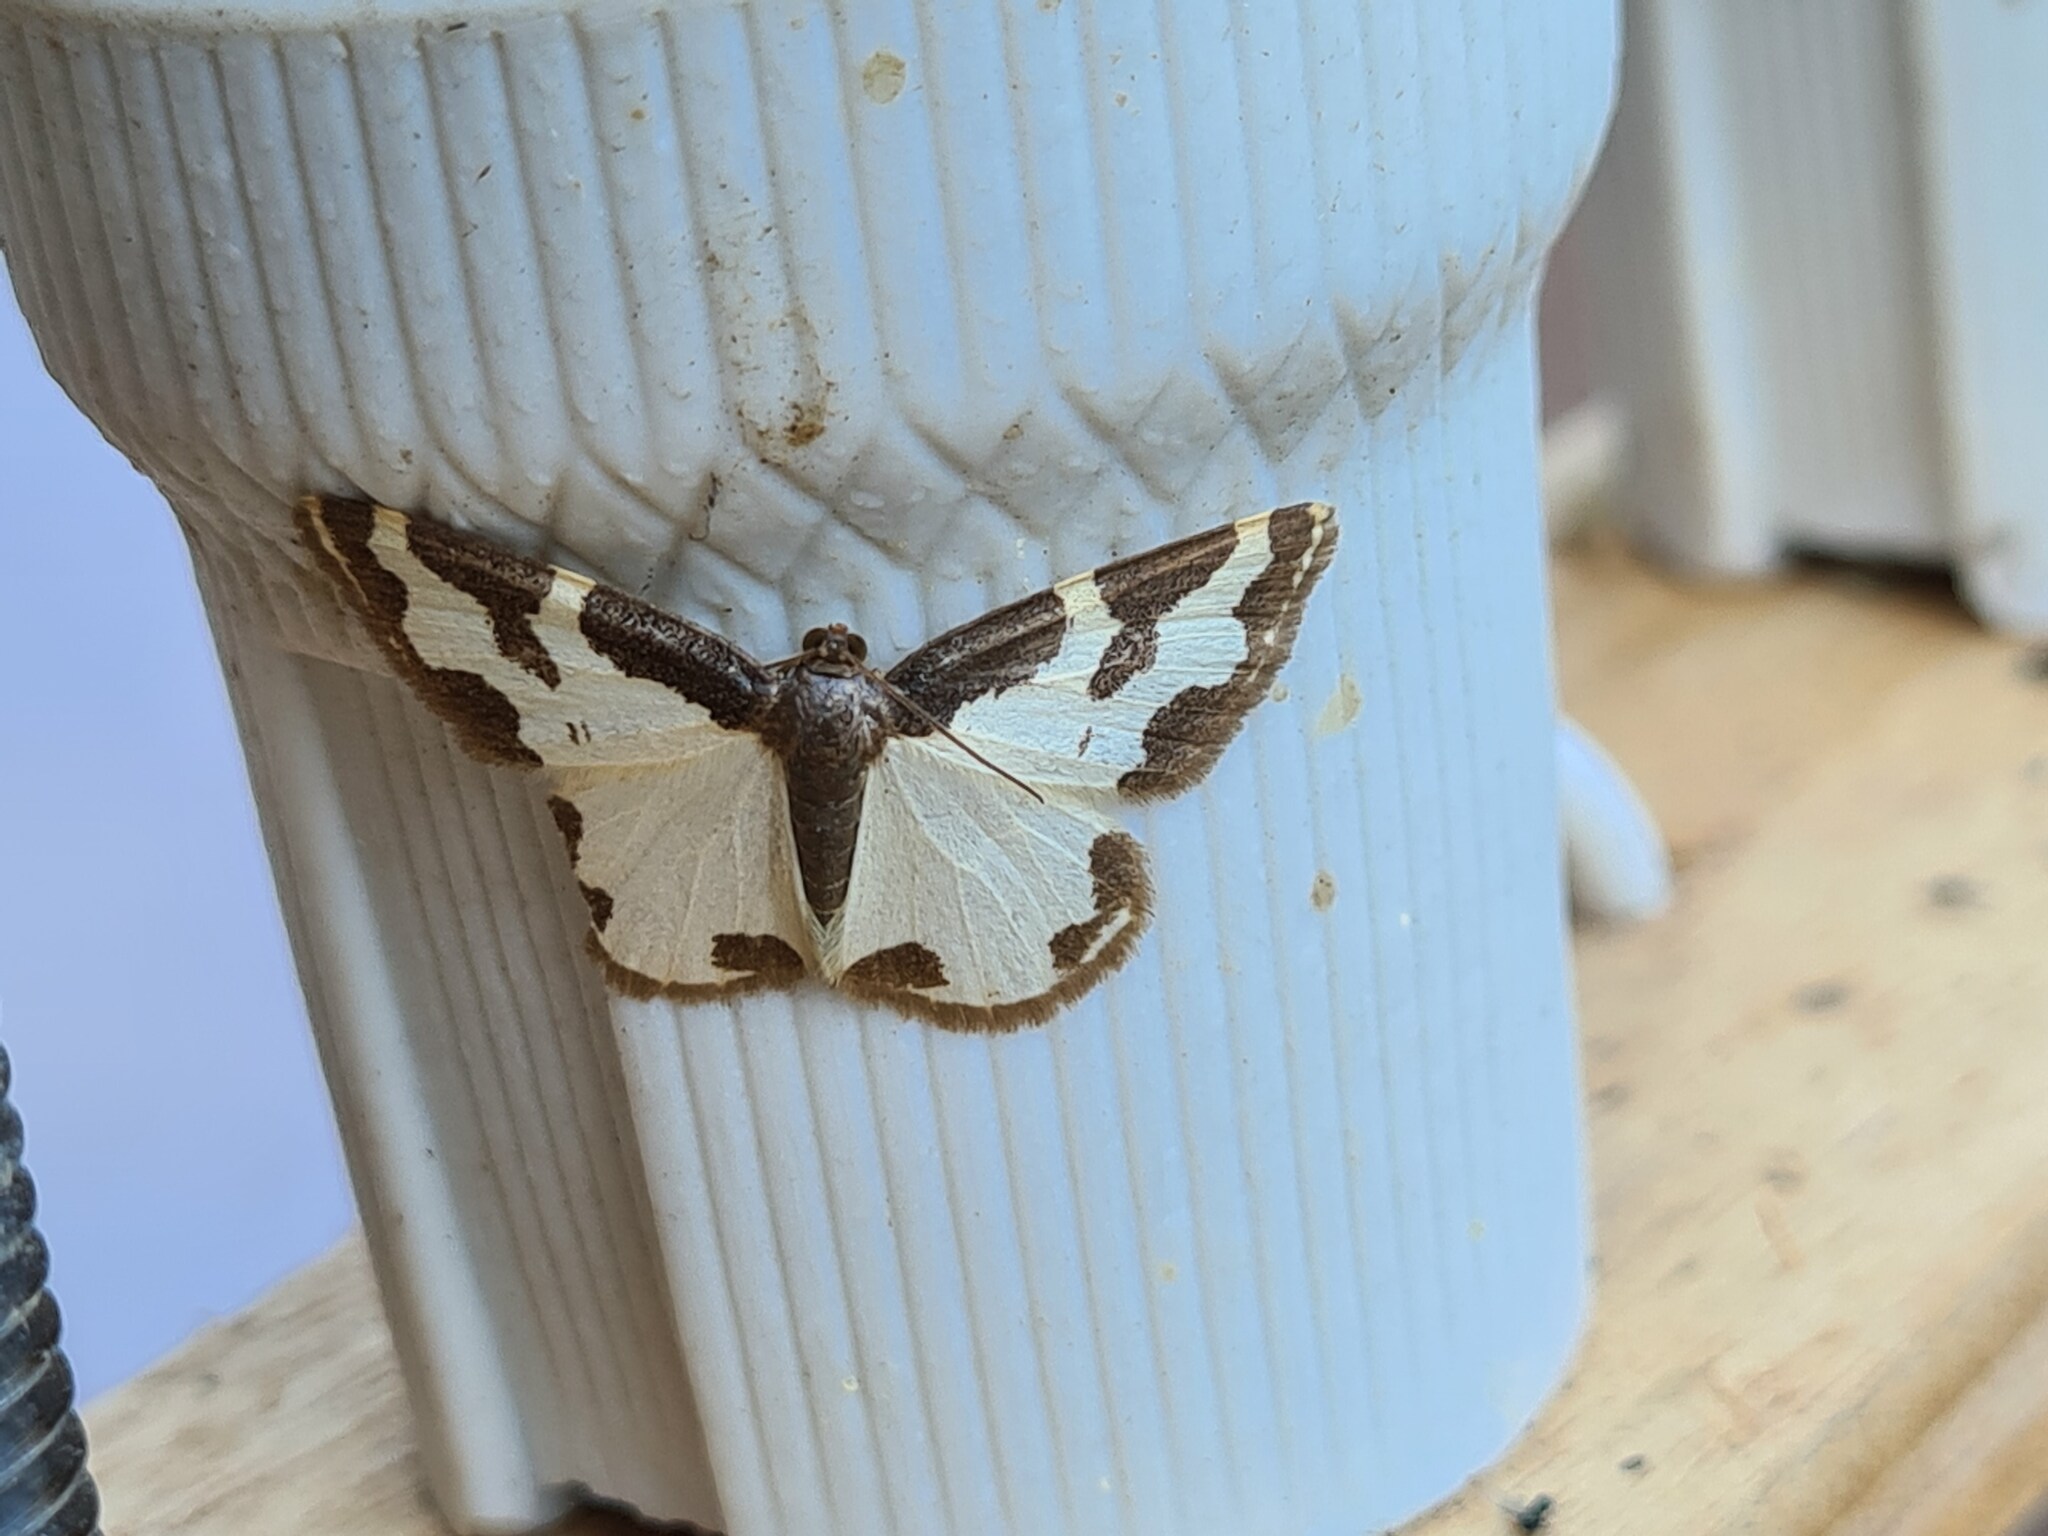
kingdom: Animalia
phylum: Arthropoda
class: Insecta
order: Lepidoptera
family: Geometridae
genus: Lomaspilis
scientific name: Lomaspilis marginata
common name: Clouded border
